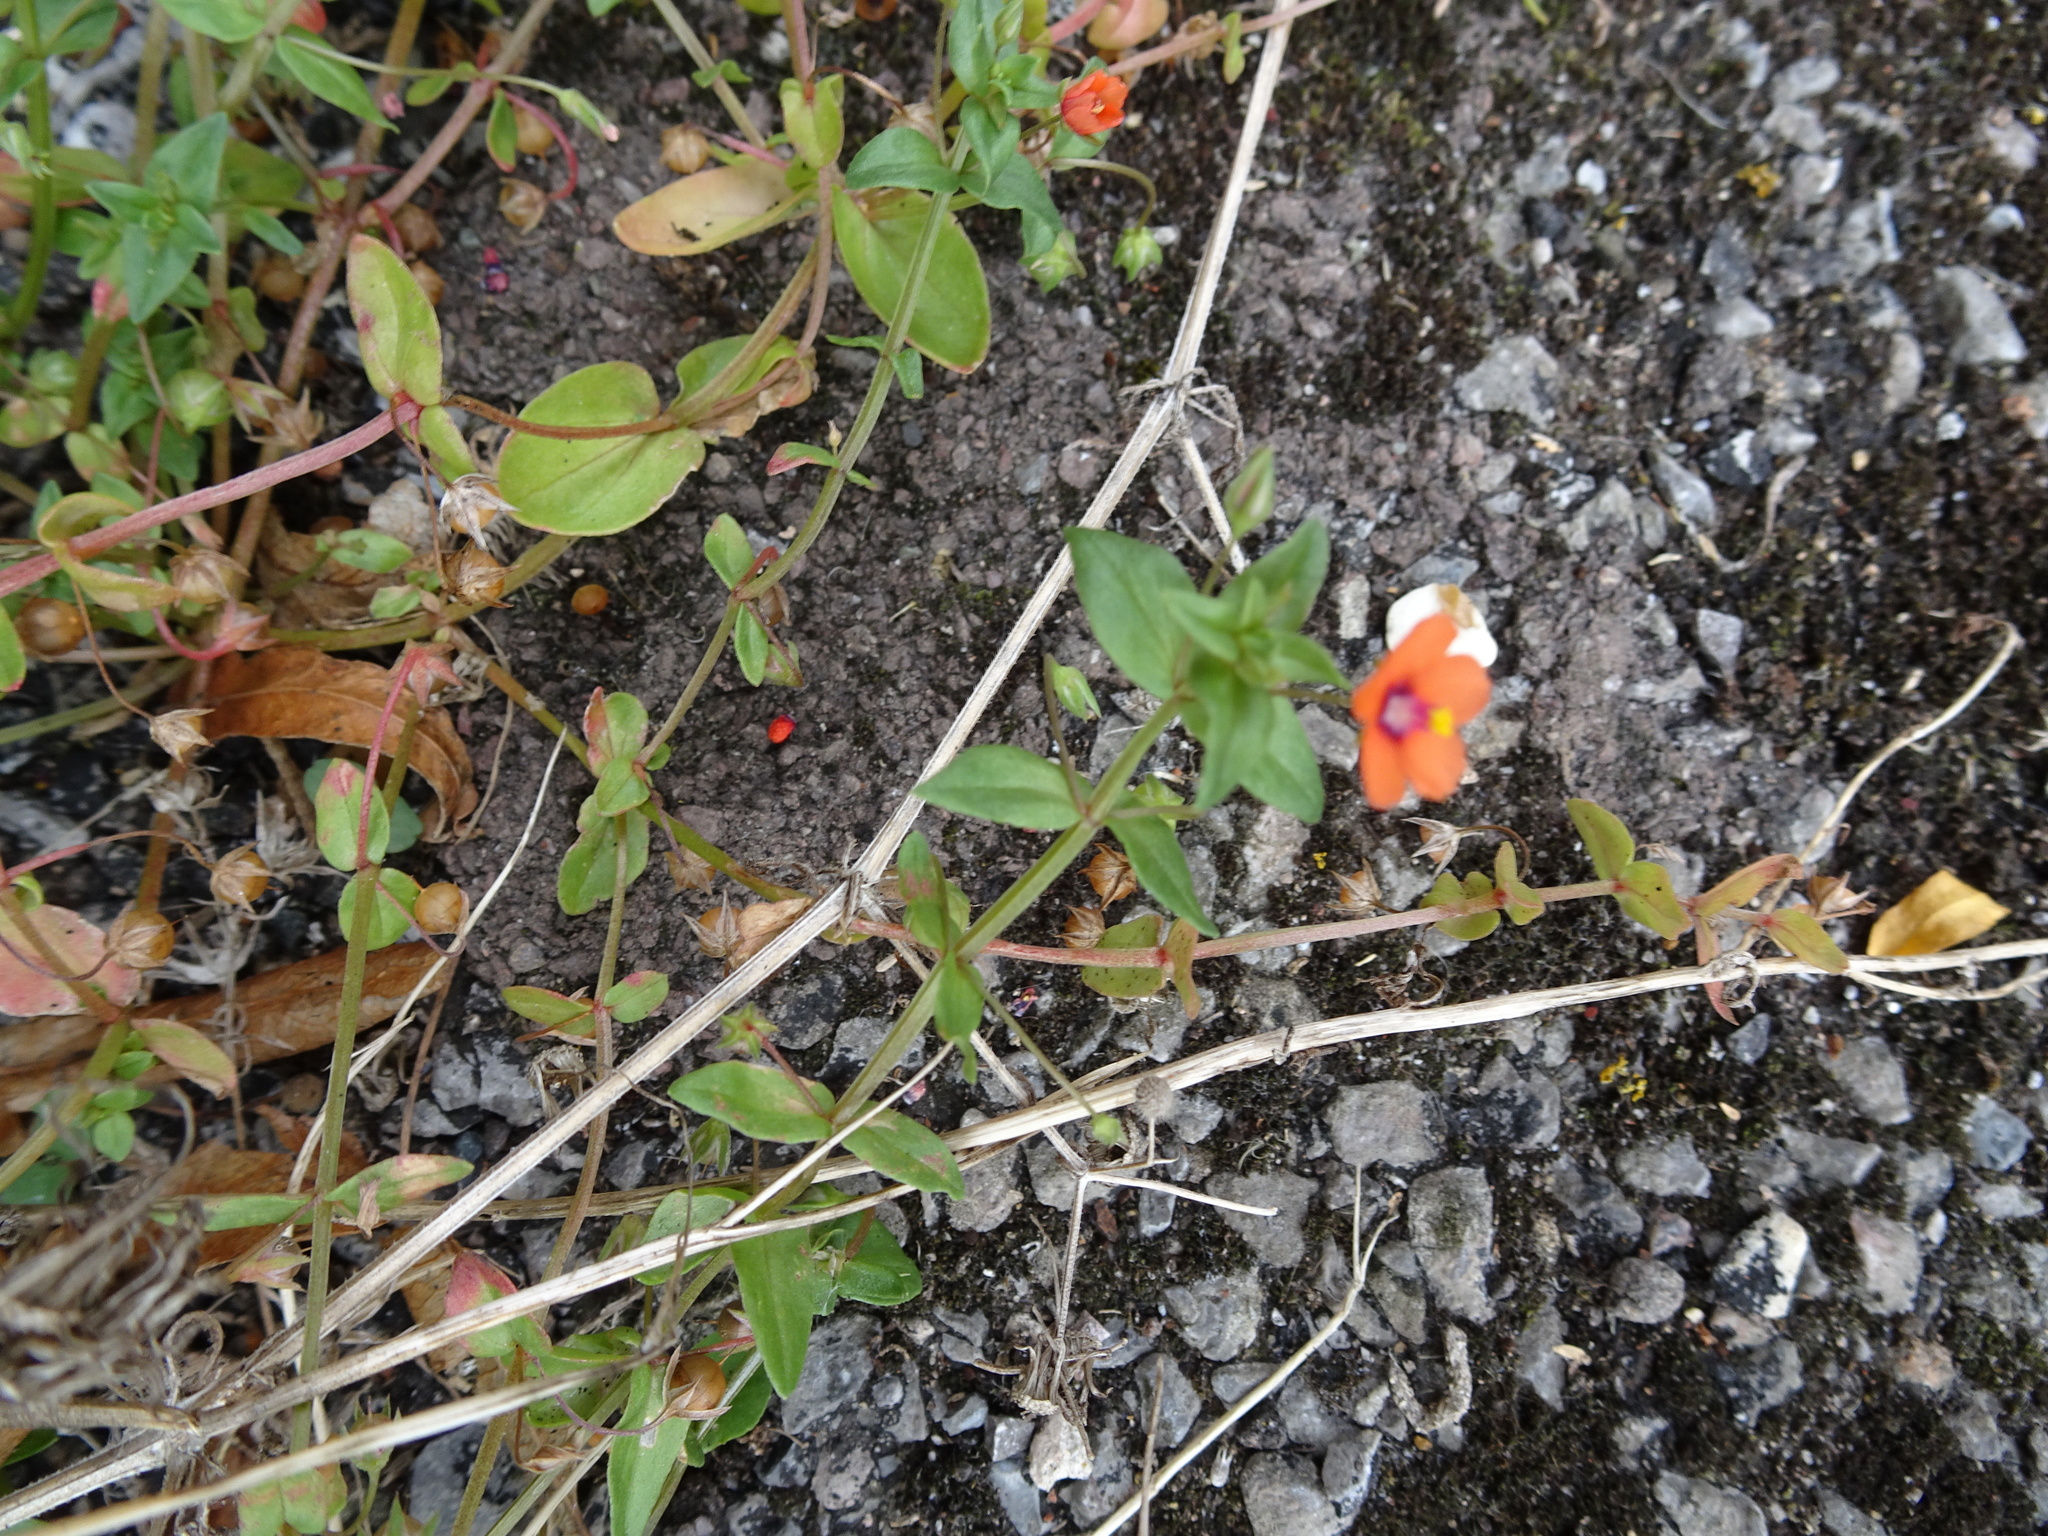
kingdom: Plantae
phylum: Tracheophyta
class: Magnoliopsida
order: Ericales
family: Primulaceae
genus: Lysimachia
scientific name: Lysimachia arvensis
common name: Scarlet pimpernel
